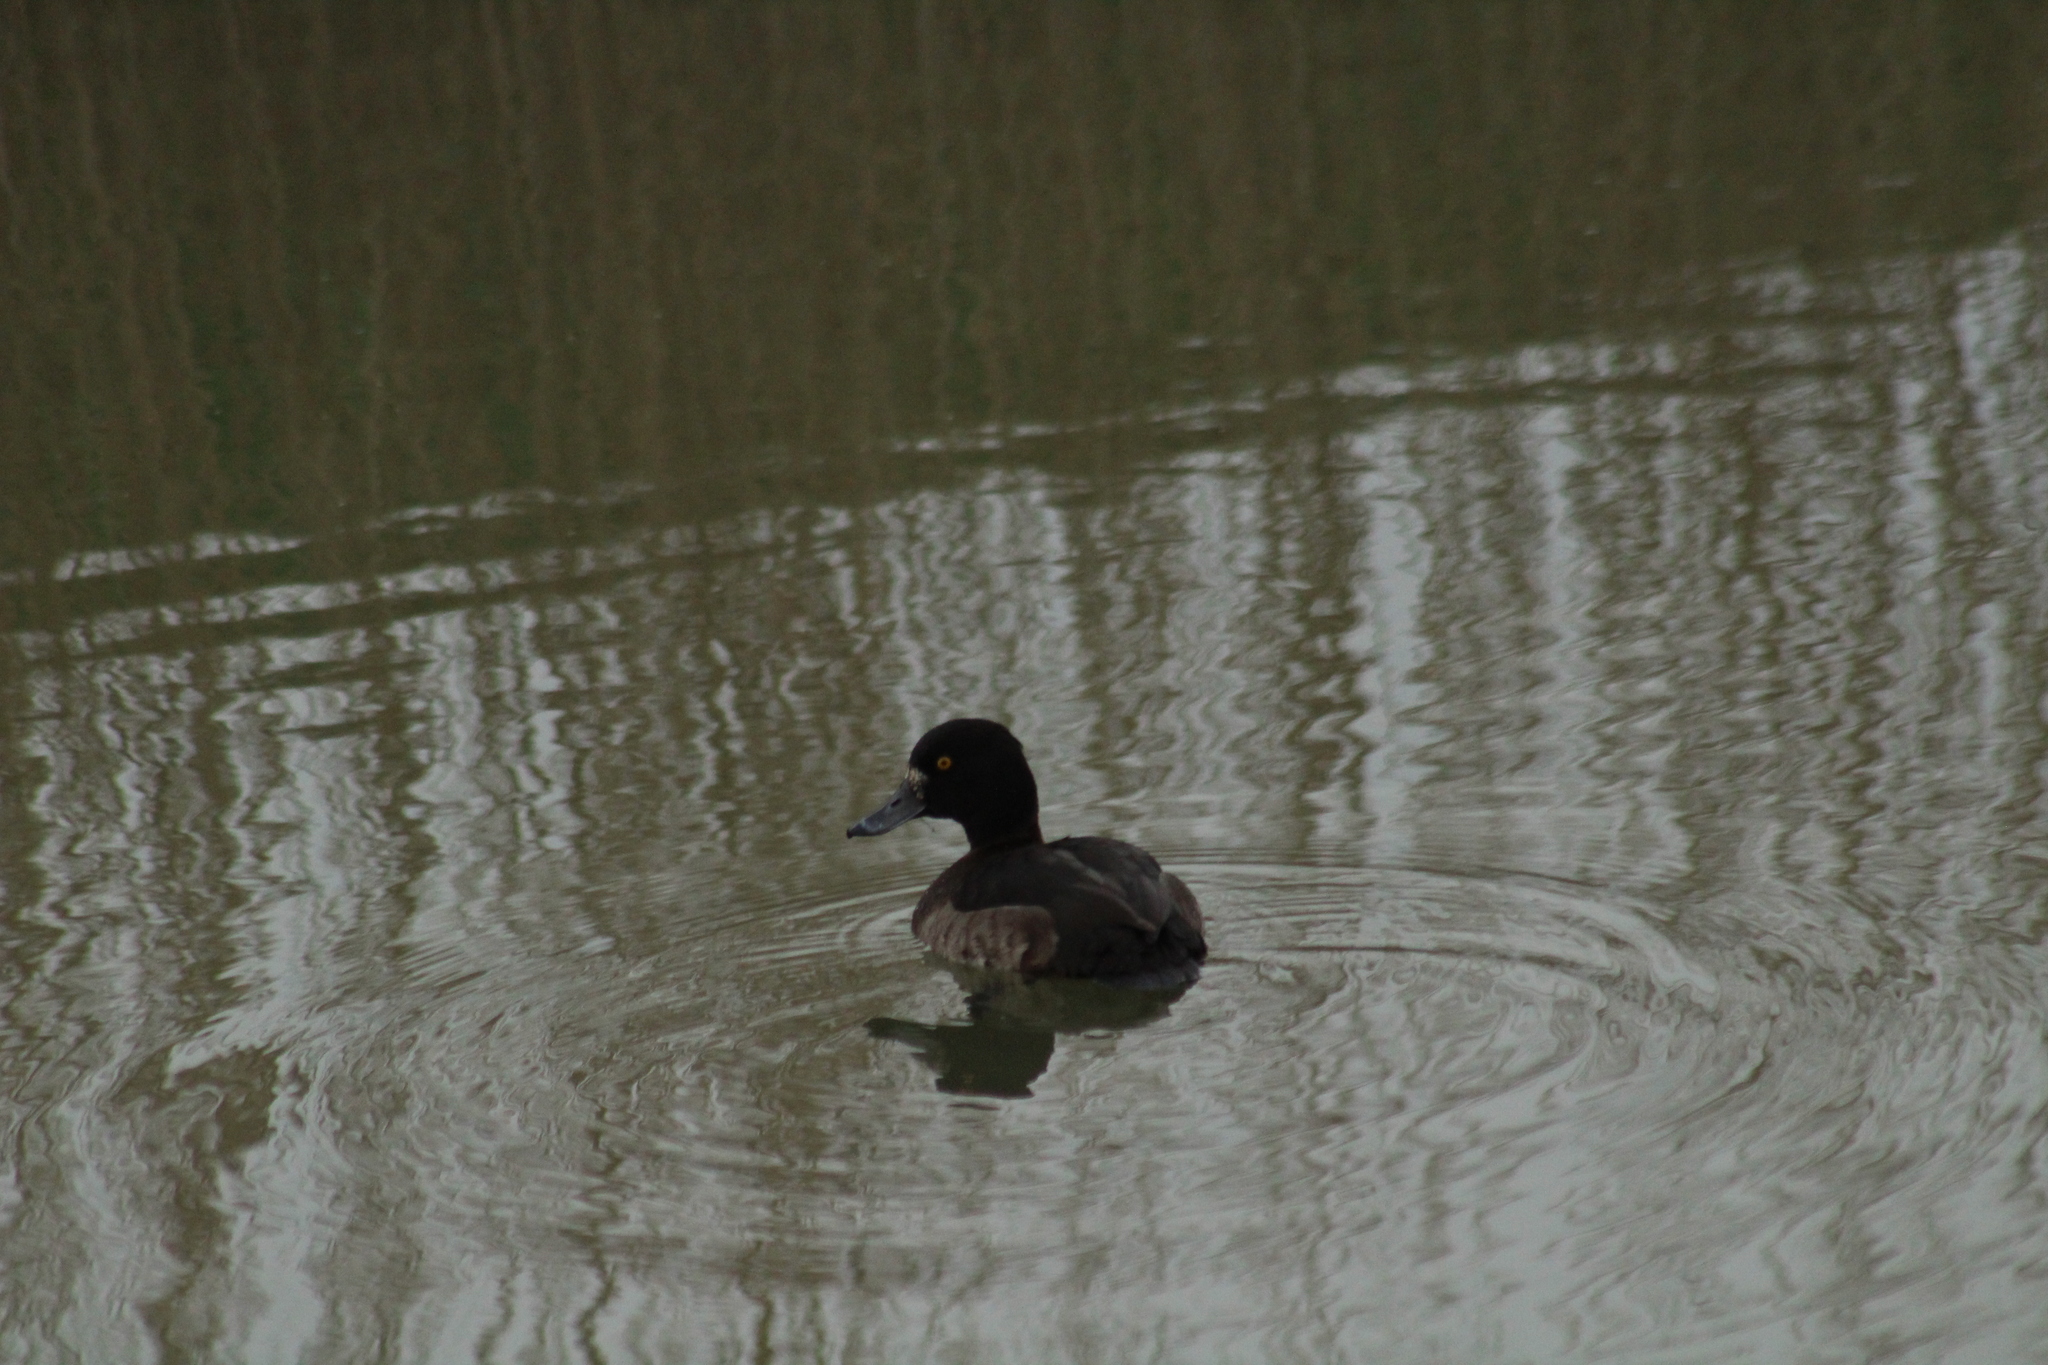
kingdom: Animalia
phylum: Chordata
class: Aves
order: Anseriformes
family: Anatidae
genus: Aythya
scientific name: Aythya fuligula
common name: Tufted duck
